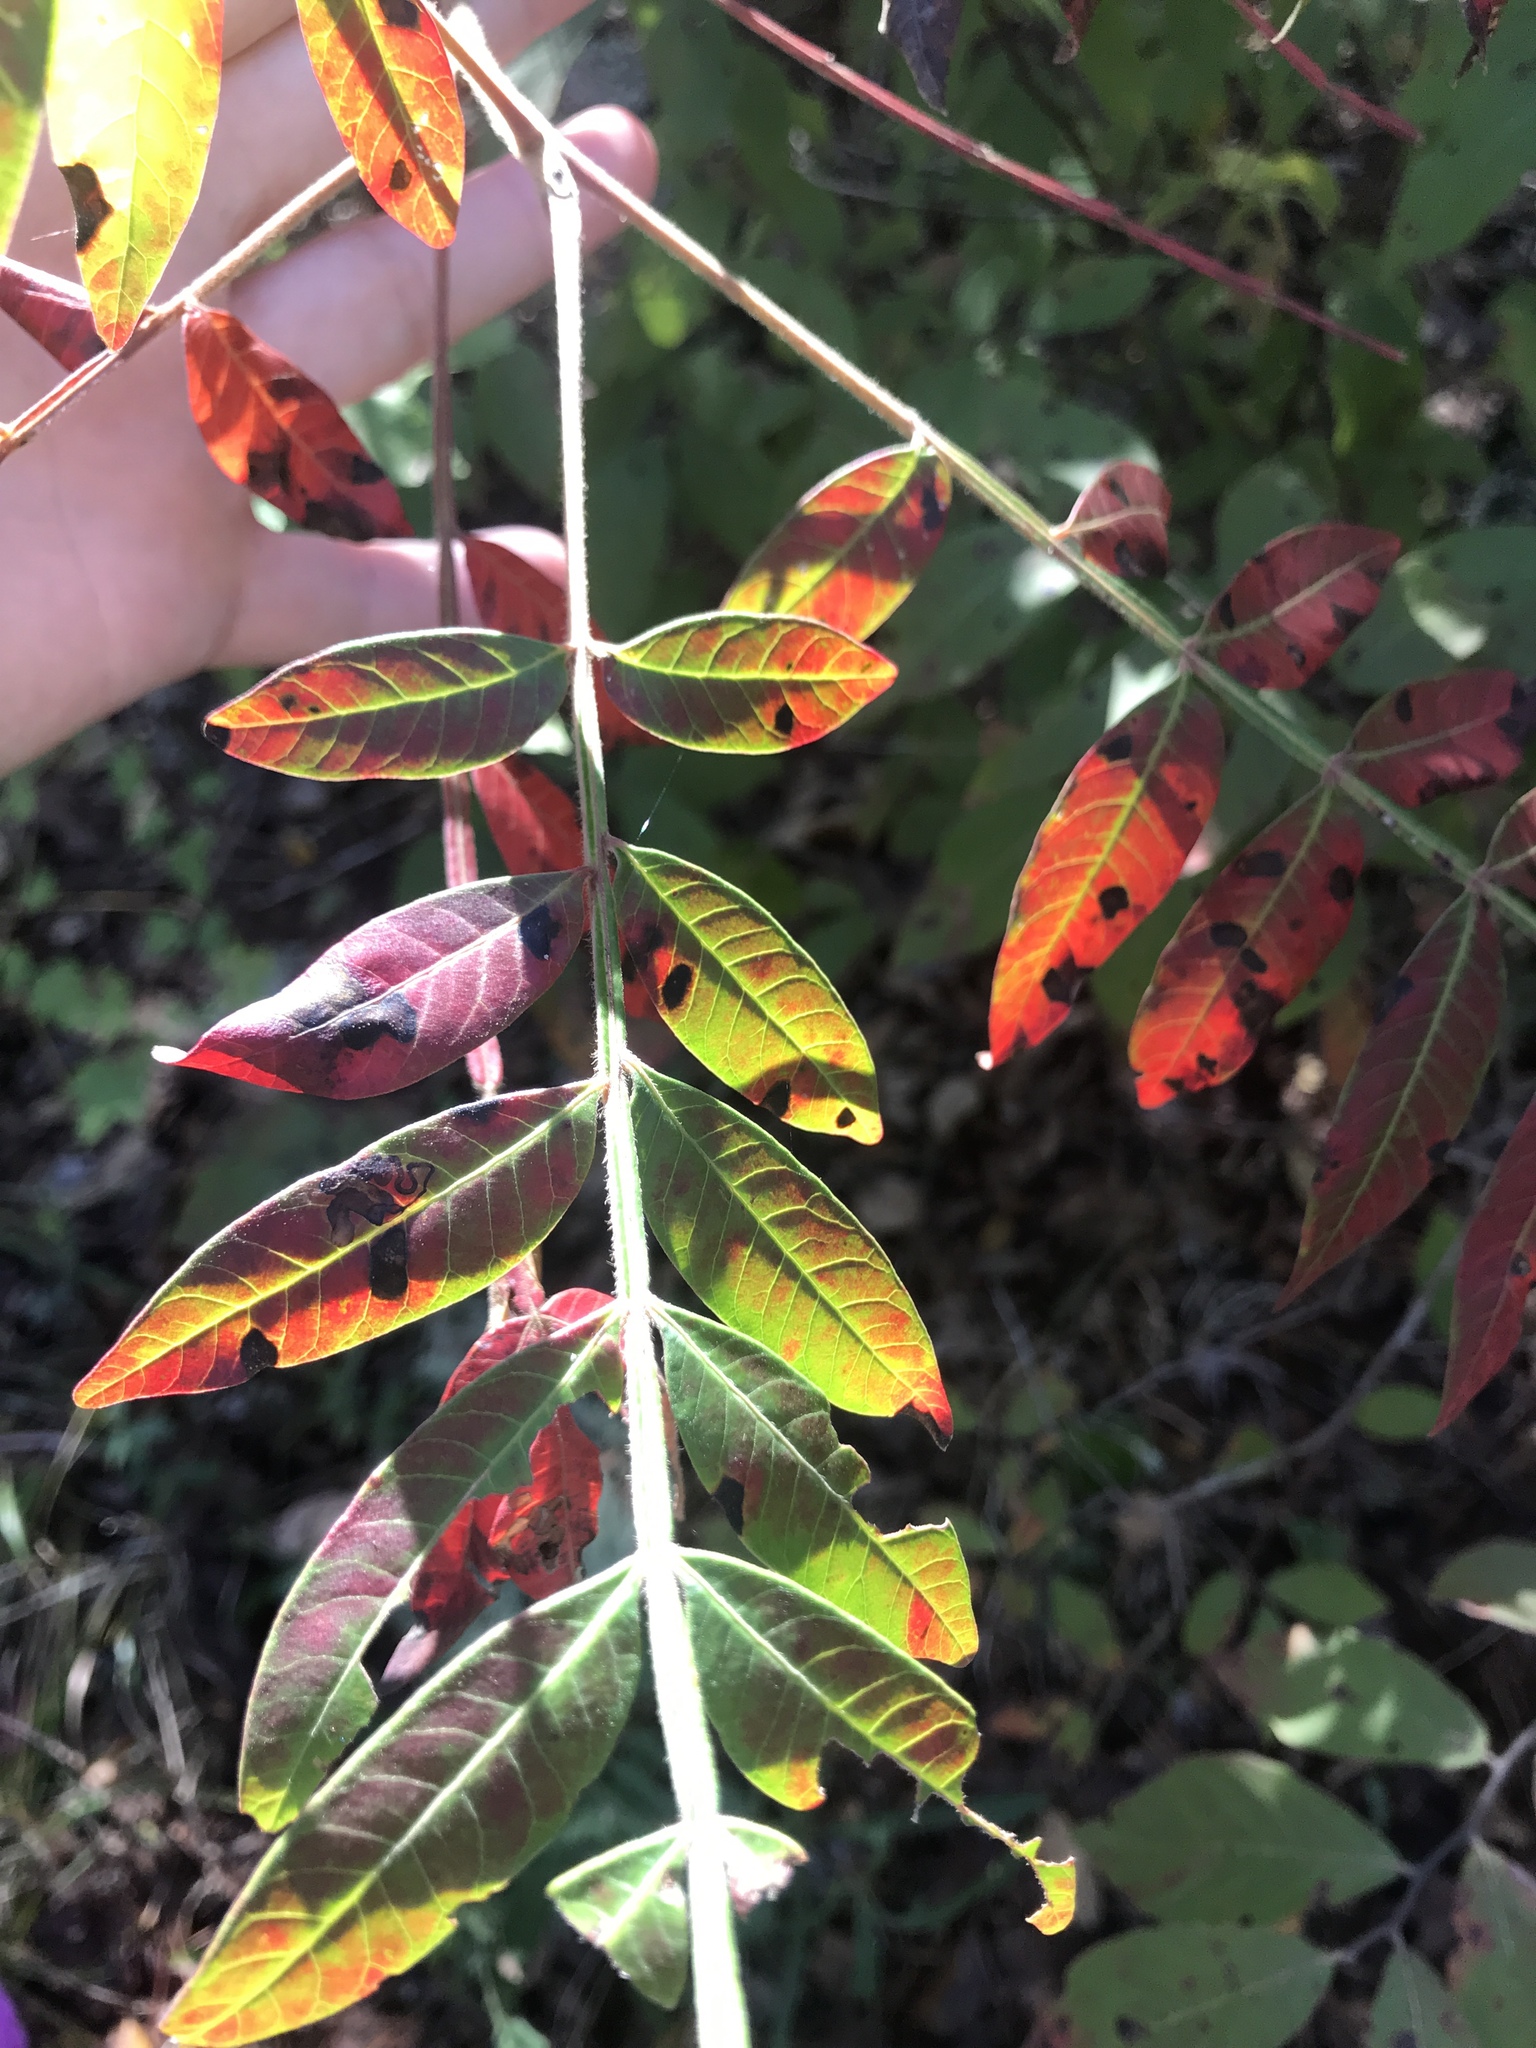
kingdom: Plantae
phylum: Tracheophyta
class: Magnoliopsida
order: Sapindales
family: Anacardiaceae
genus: Rhus
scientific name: Rhus copallina
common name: Shining sumac
